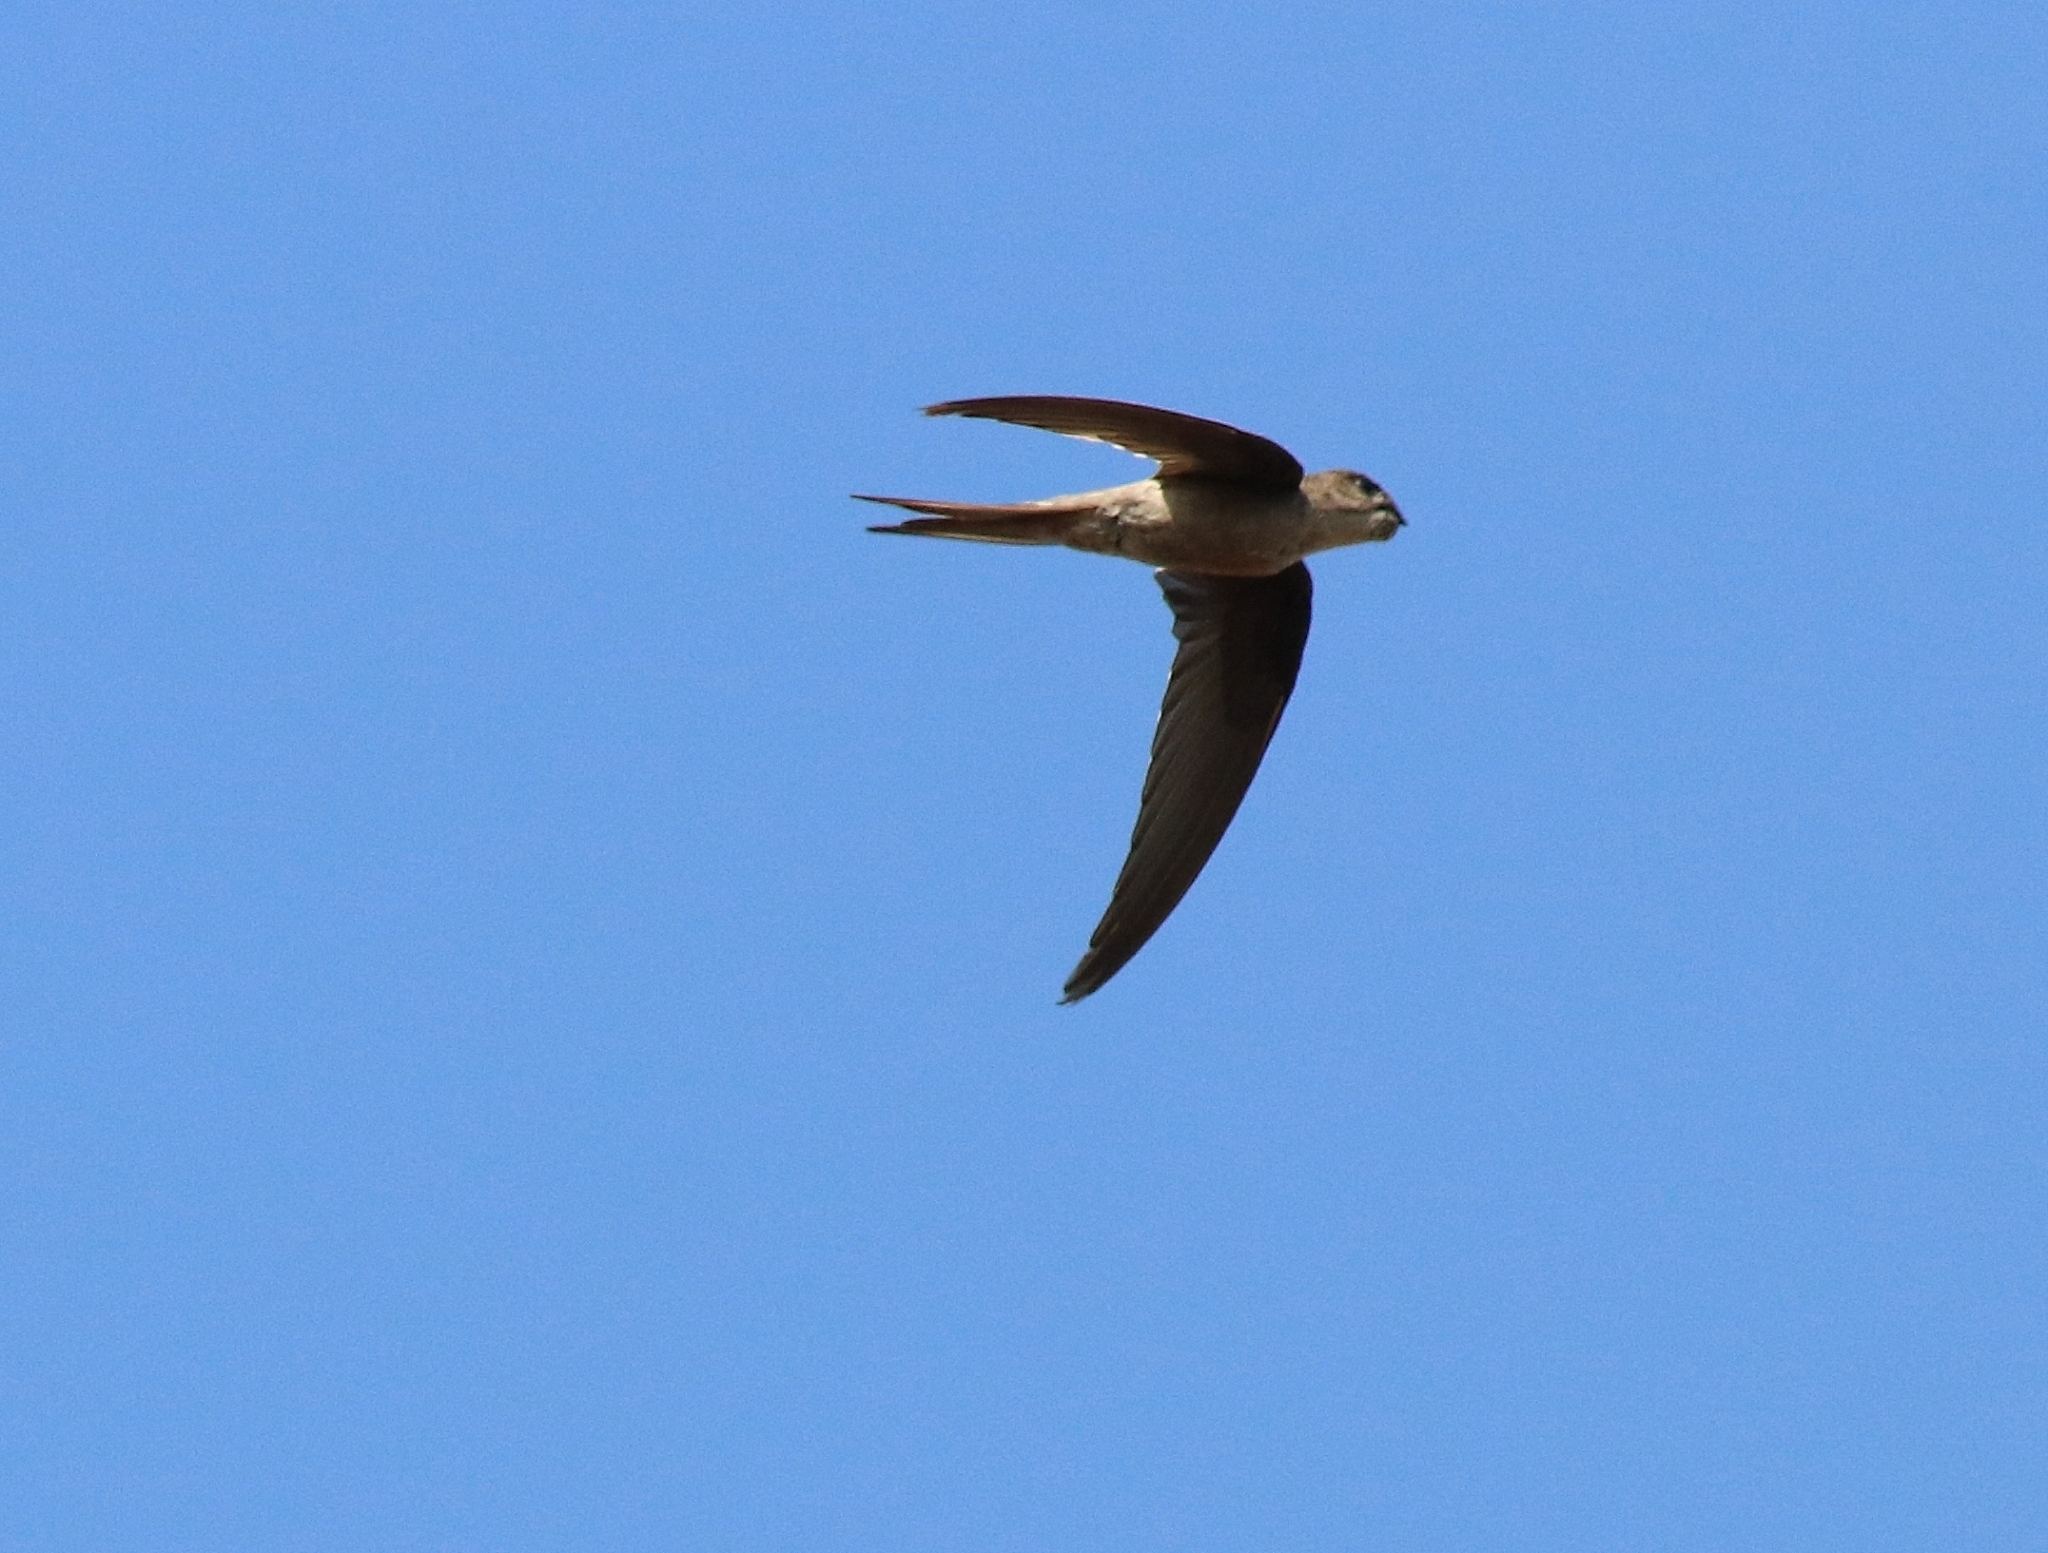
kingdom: Animalia
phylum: Chordata
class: Aves
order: Apodiformes
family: Apodidae
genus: Cypsiurus
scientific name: Cypsiurus balasiensis
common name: Asian palm swift
